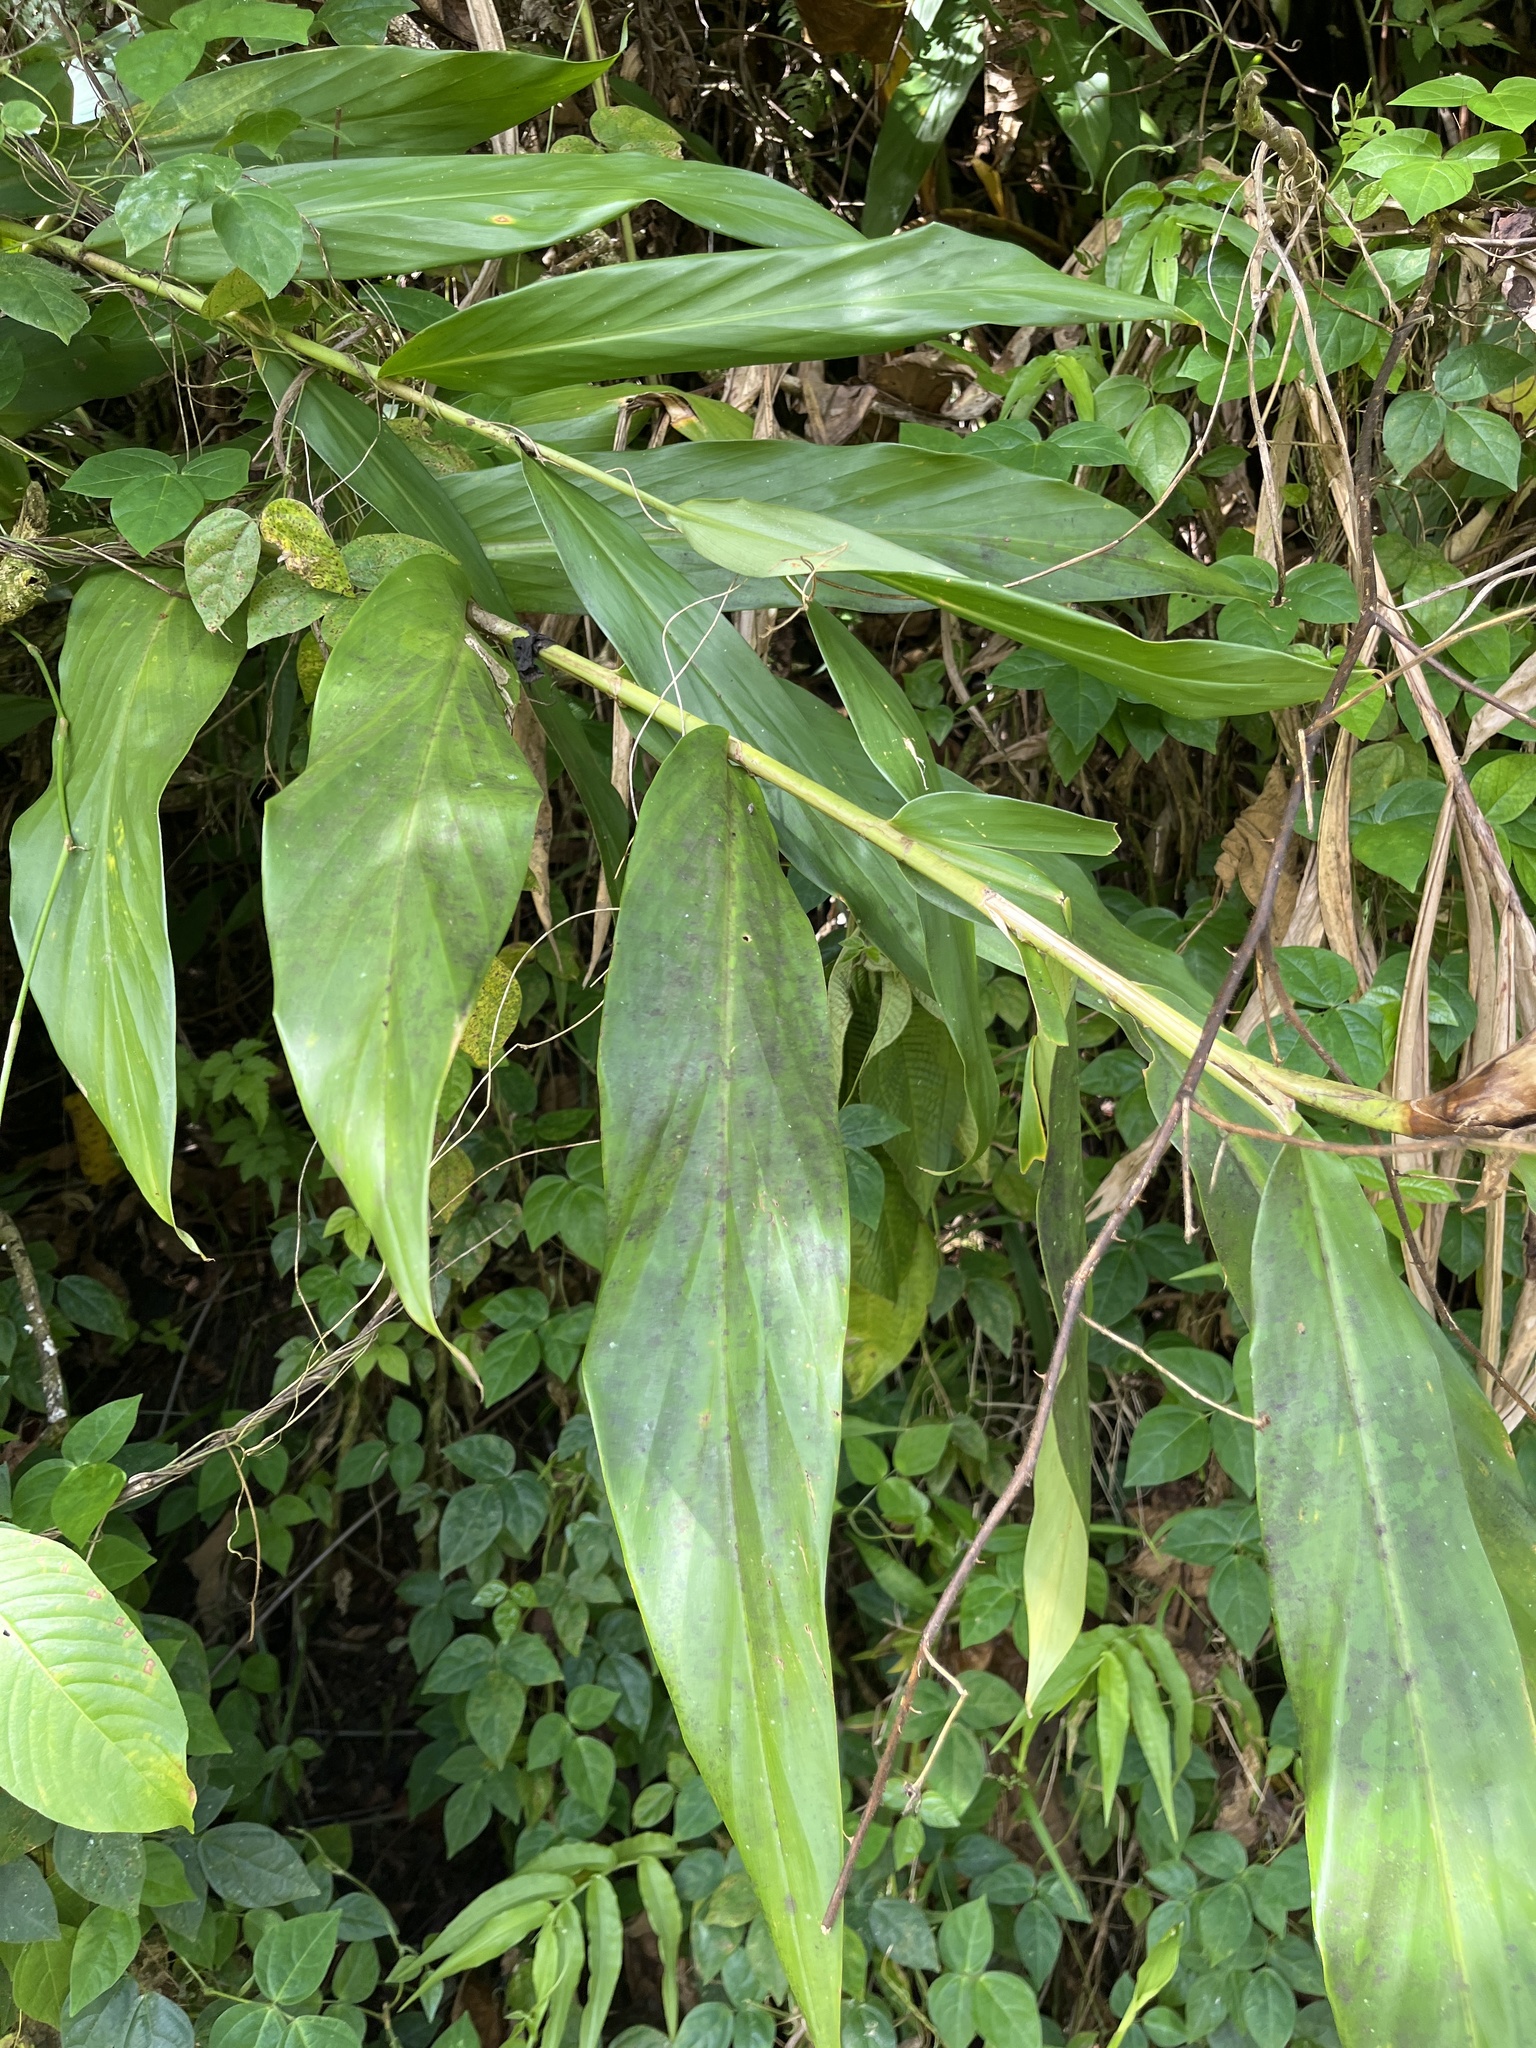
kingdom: Plantae
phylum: Tracheophyta
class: Liliopsida
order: Zingiberales
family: Zingiberaceae
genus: Hedychium
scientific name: Hedychium coronarium
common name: White garland-lily
